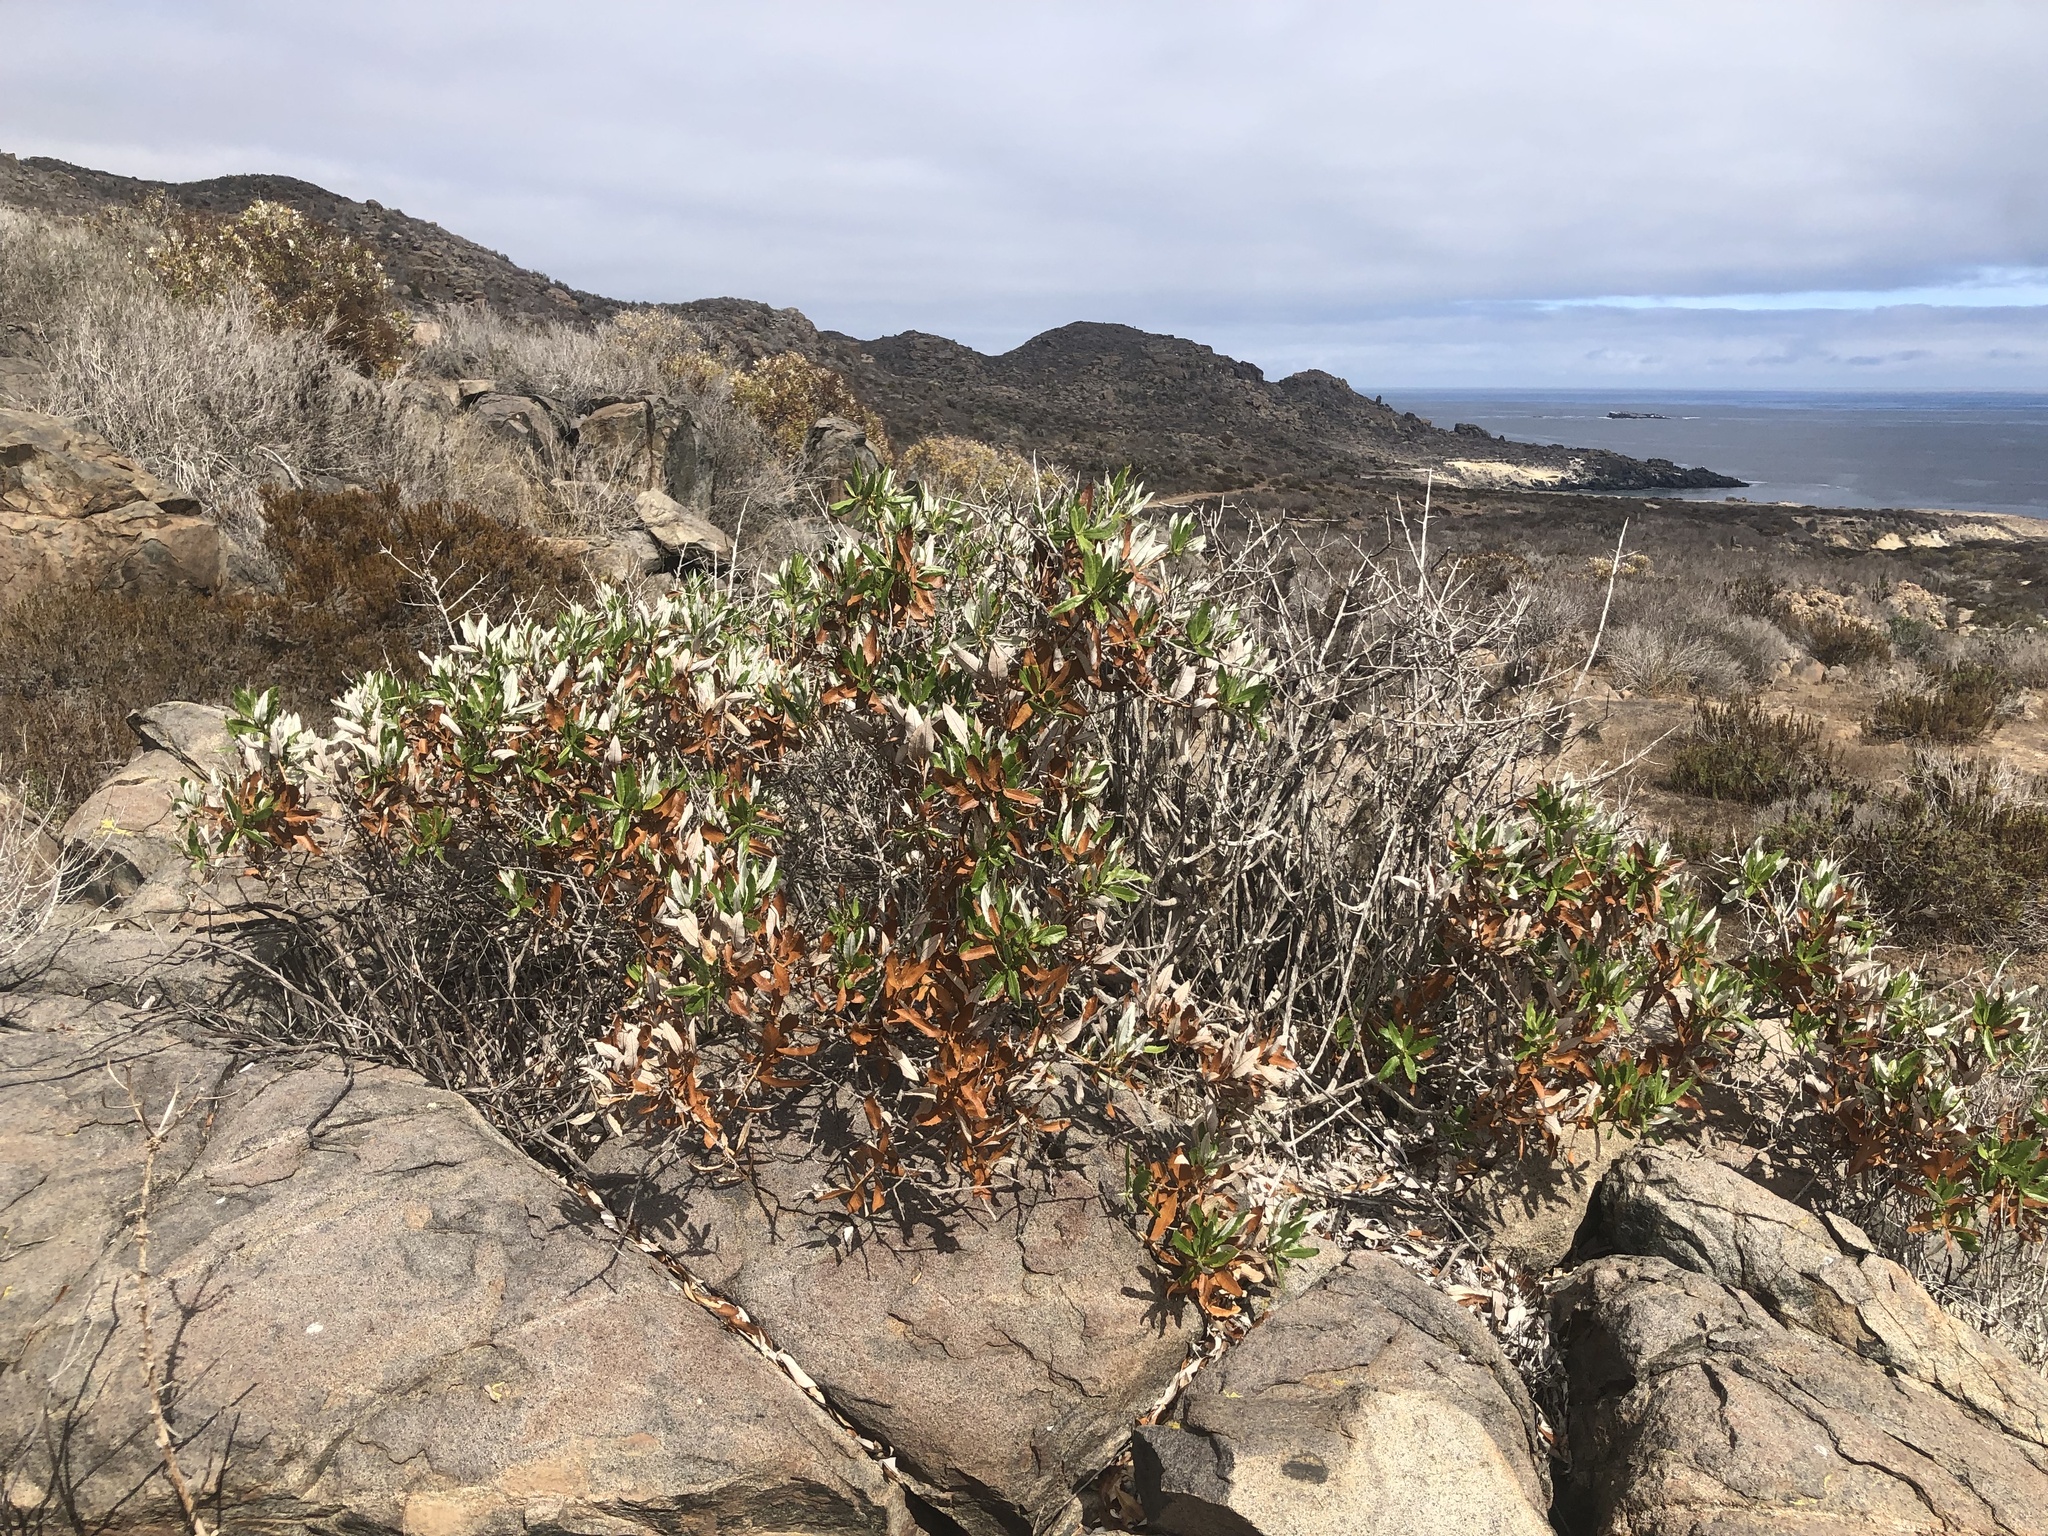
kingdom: Plantae
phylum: Tracheophyta
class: Magnoliopsida
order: Asterales
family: Asteraceae
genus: Spinoliva
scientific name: Spinoliva ilicifolia
